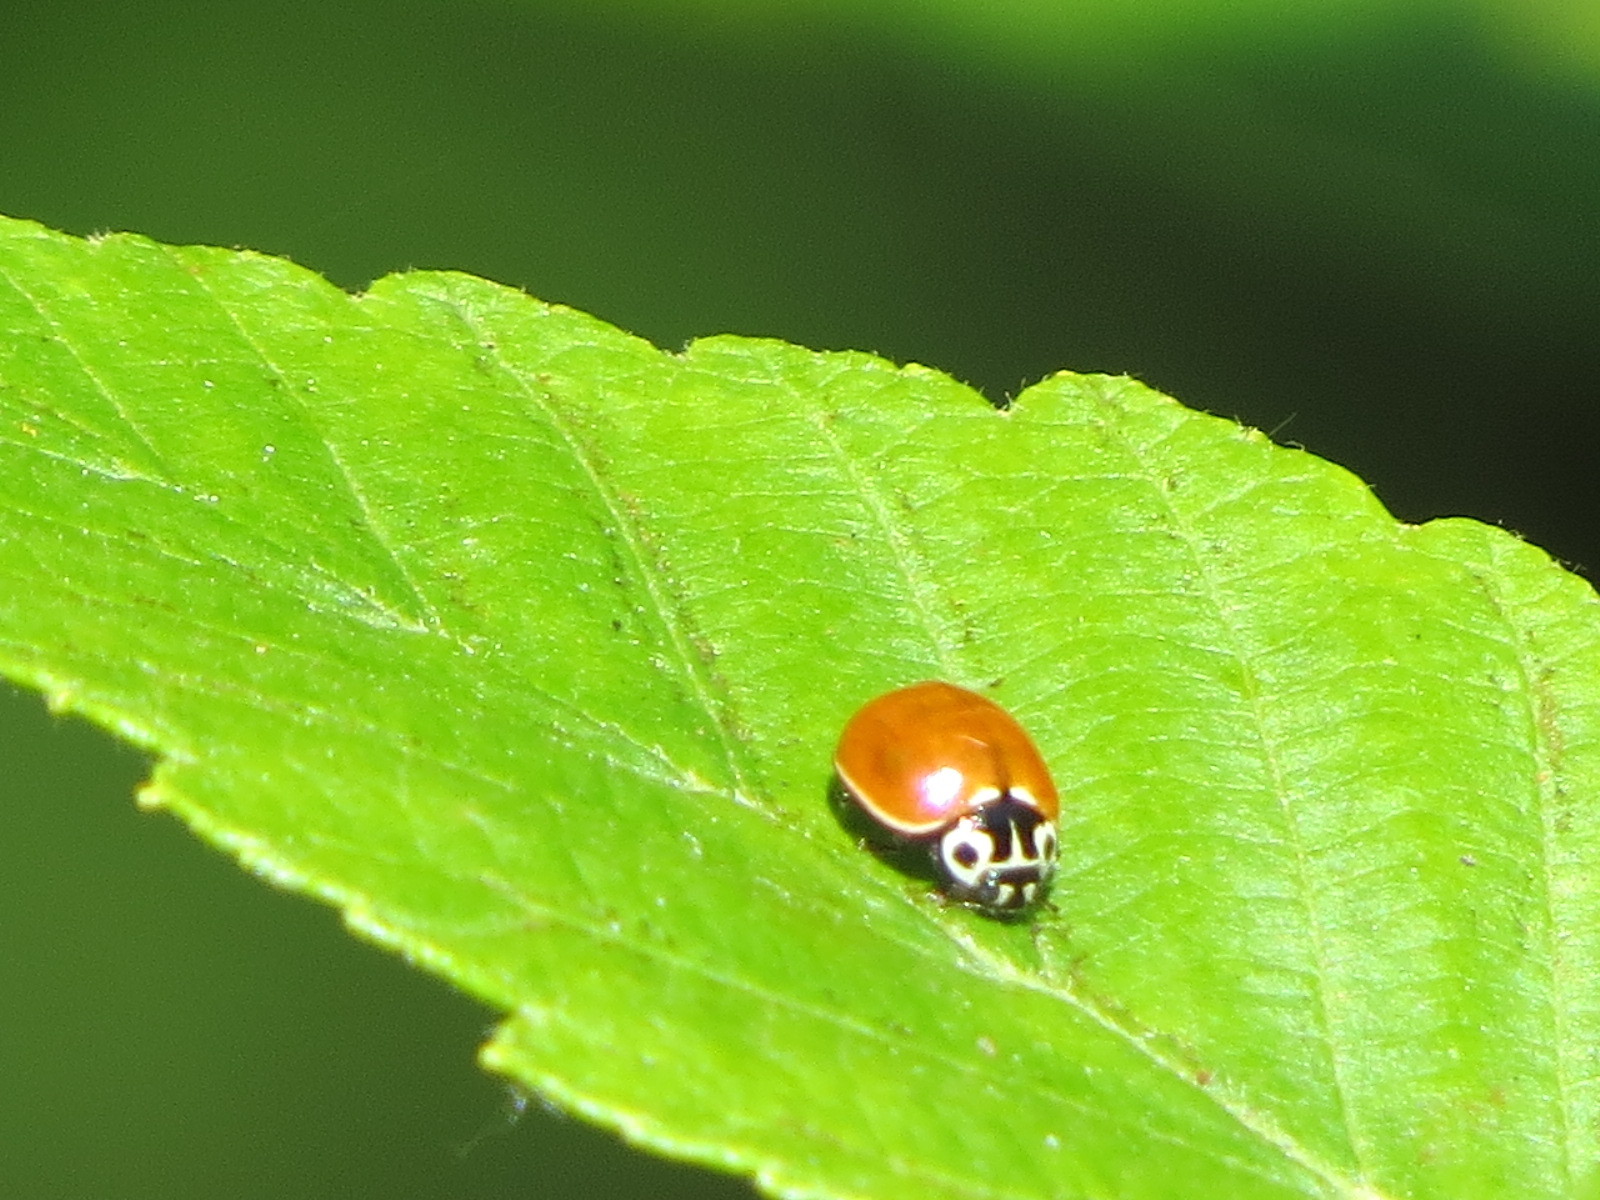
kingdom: Animalia
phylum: Arthropoda
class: Insecta
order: Coleoptera
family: Coccinellidae
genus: Cycloneda
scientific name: Cycloneda polita
